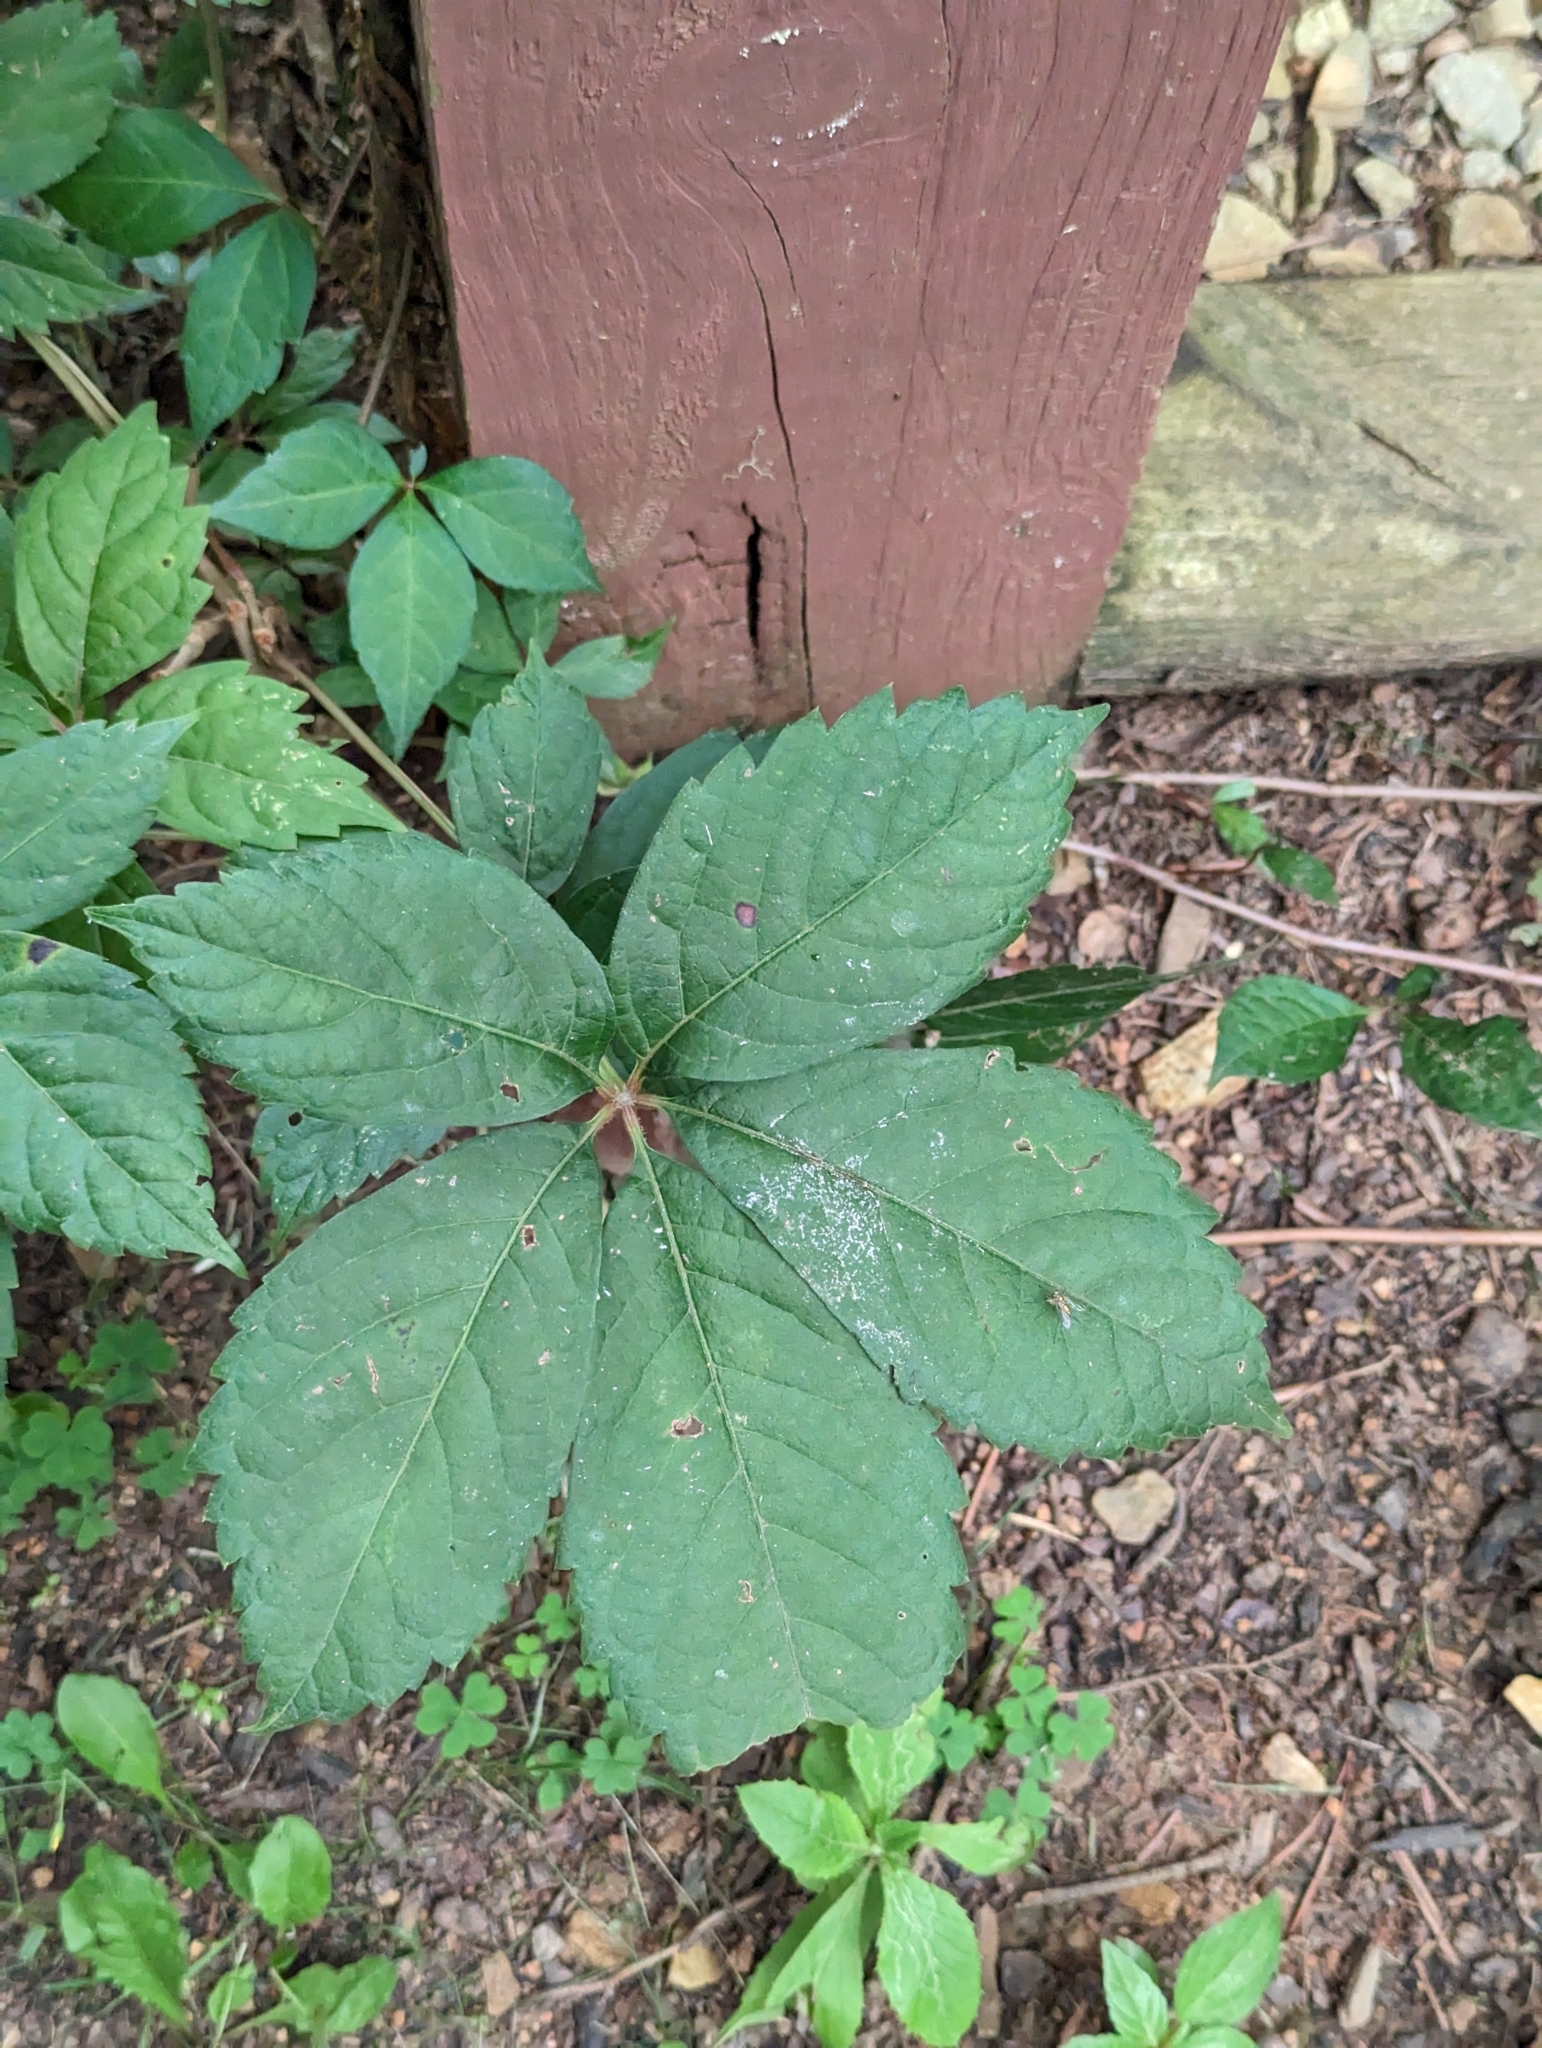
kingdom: Plantae
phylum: Tracheophyta
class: Magnoliopsida
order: Vitales
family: Vitaceae
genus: Parthenocissus
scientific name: Parthenocissus quinquefolia
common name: Virginia-creeper
